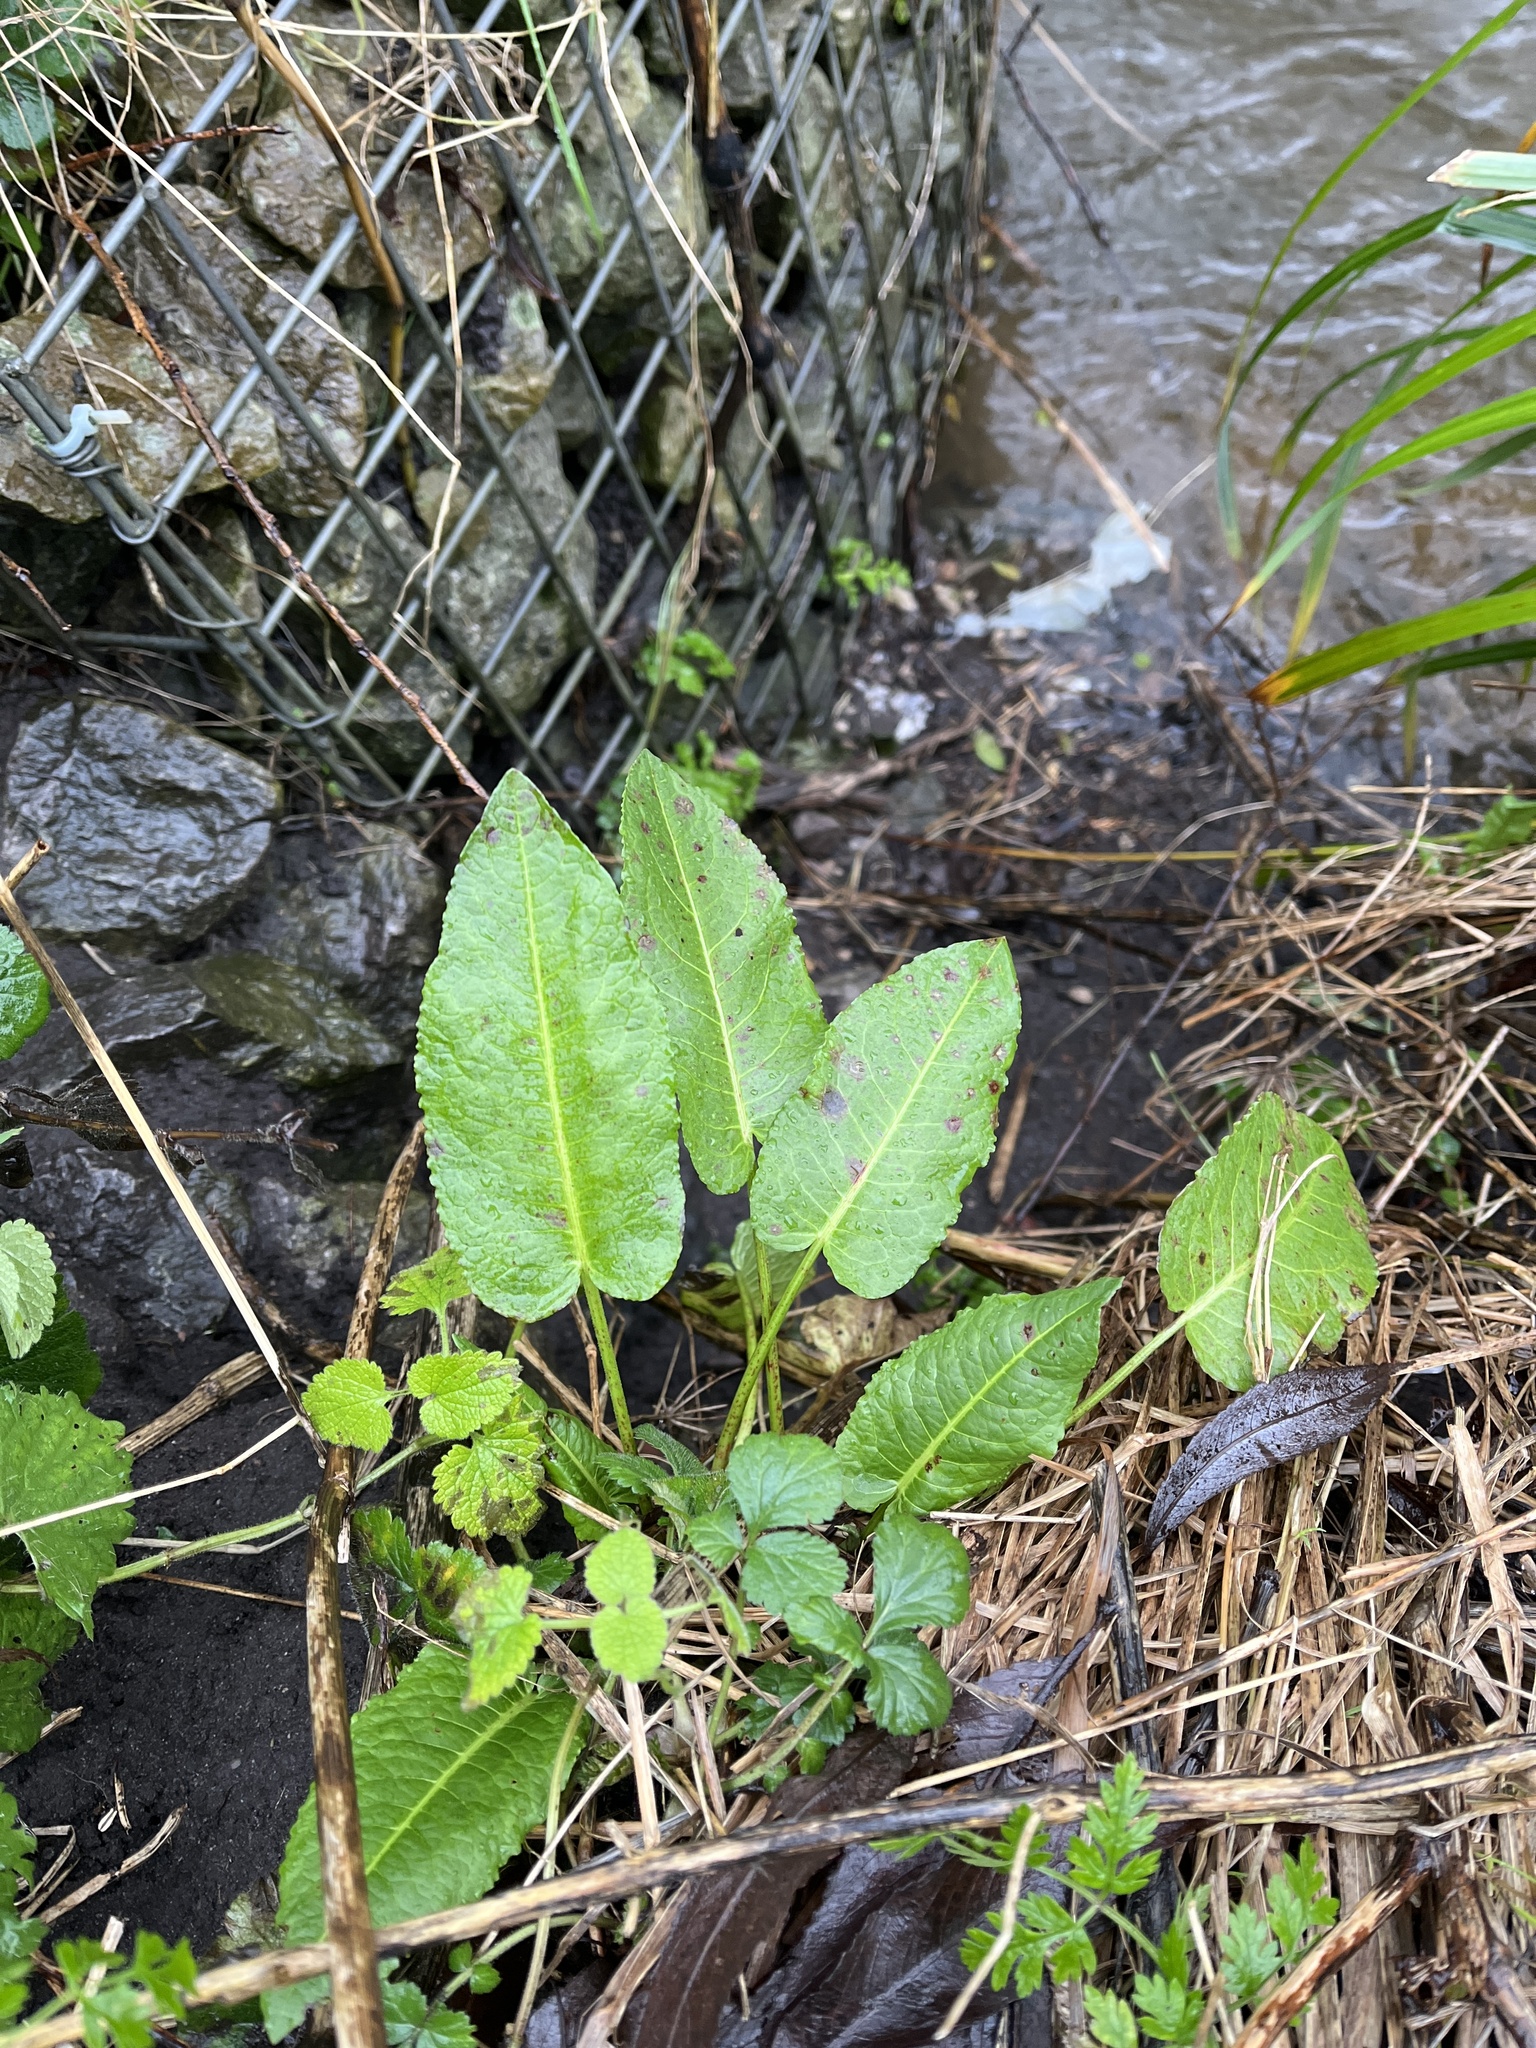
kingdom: Plantae
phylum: Tracheophyta
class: Magnoliopsida
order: Caryophyllales
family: Polygonaceae
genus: Rumex
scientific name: Rumex obtusifolius
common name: Bitter dock
